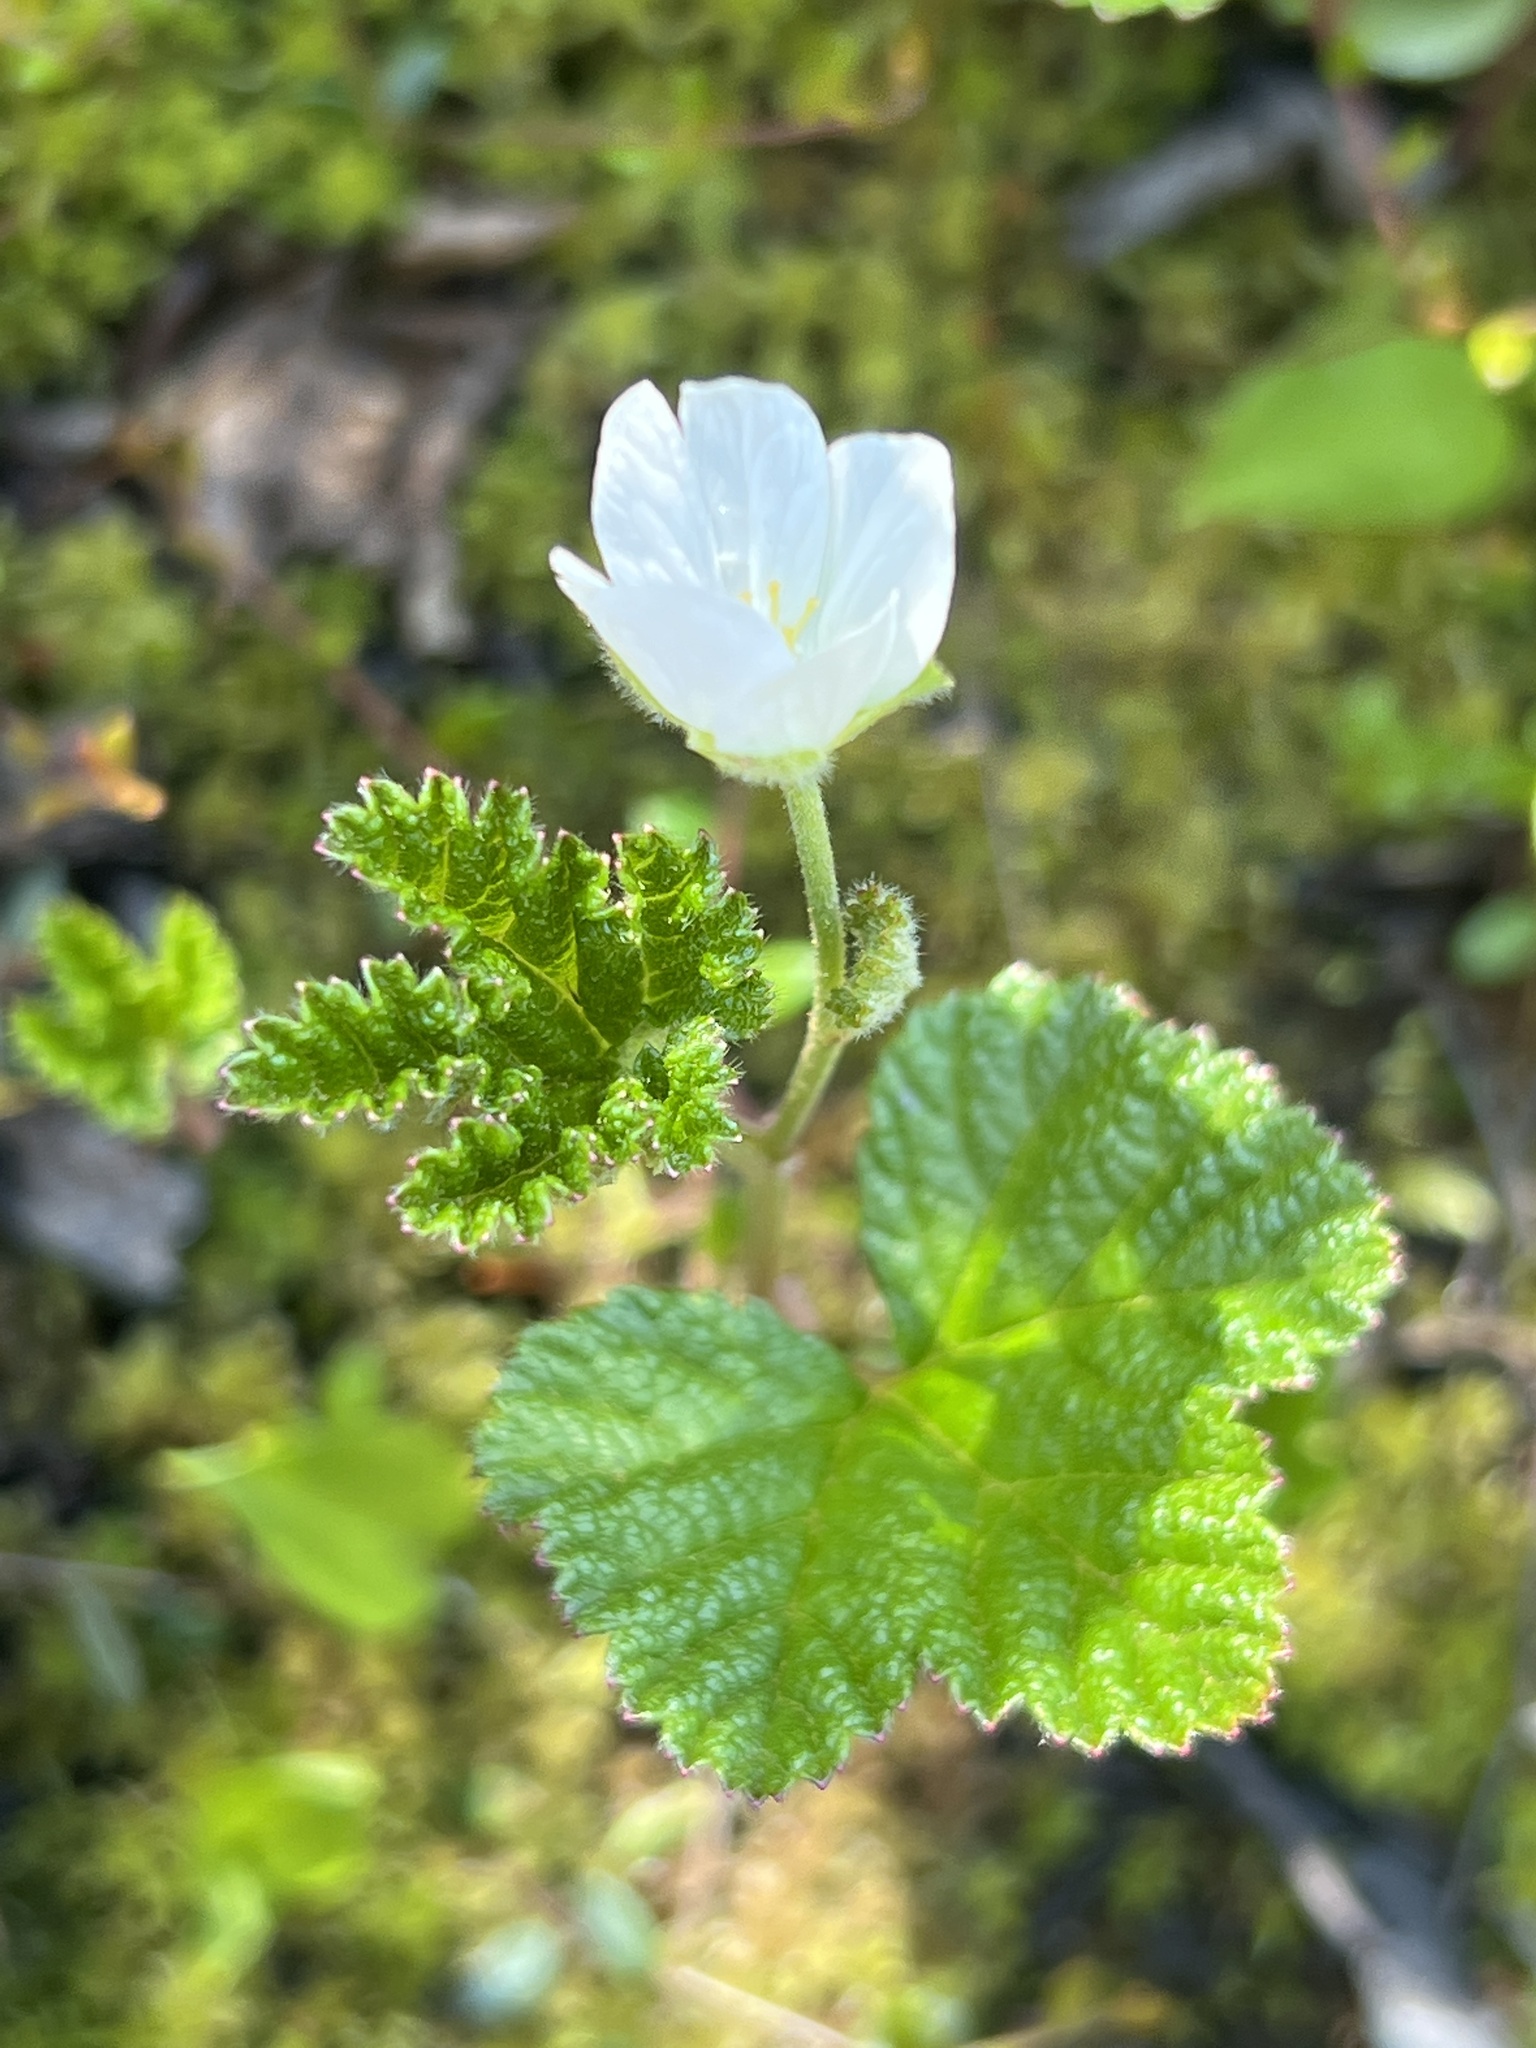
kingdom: Plantae
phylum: Tracheophyta
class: Magnoliopsida
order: Rosales
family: Rosaceae
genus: Rubus
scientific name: Rubus chamaemorus
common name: Cloudberry
